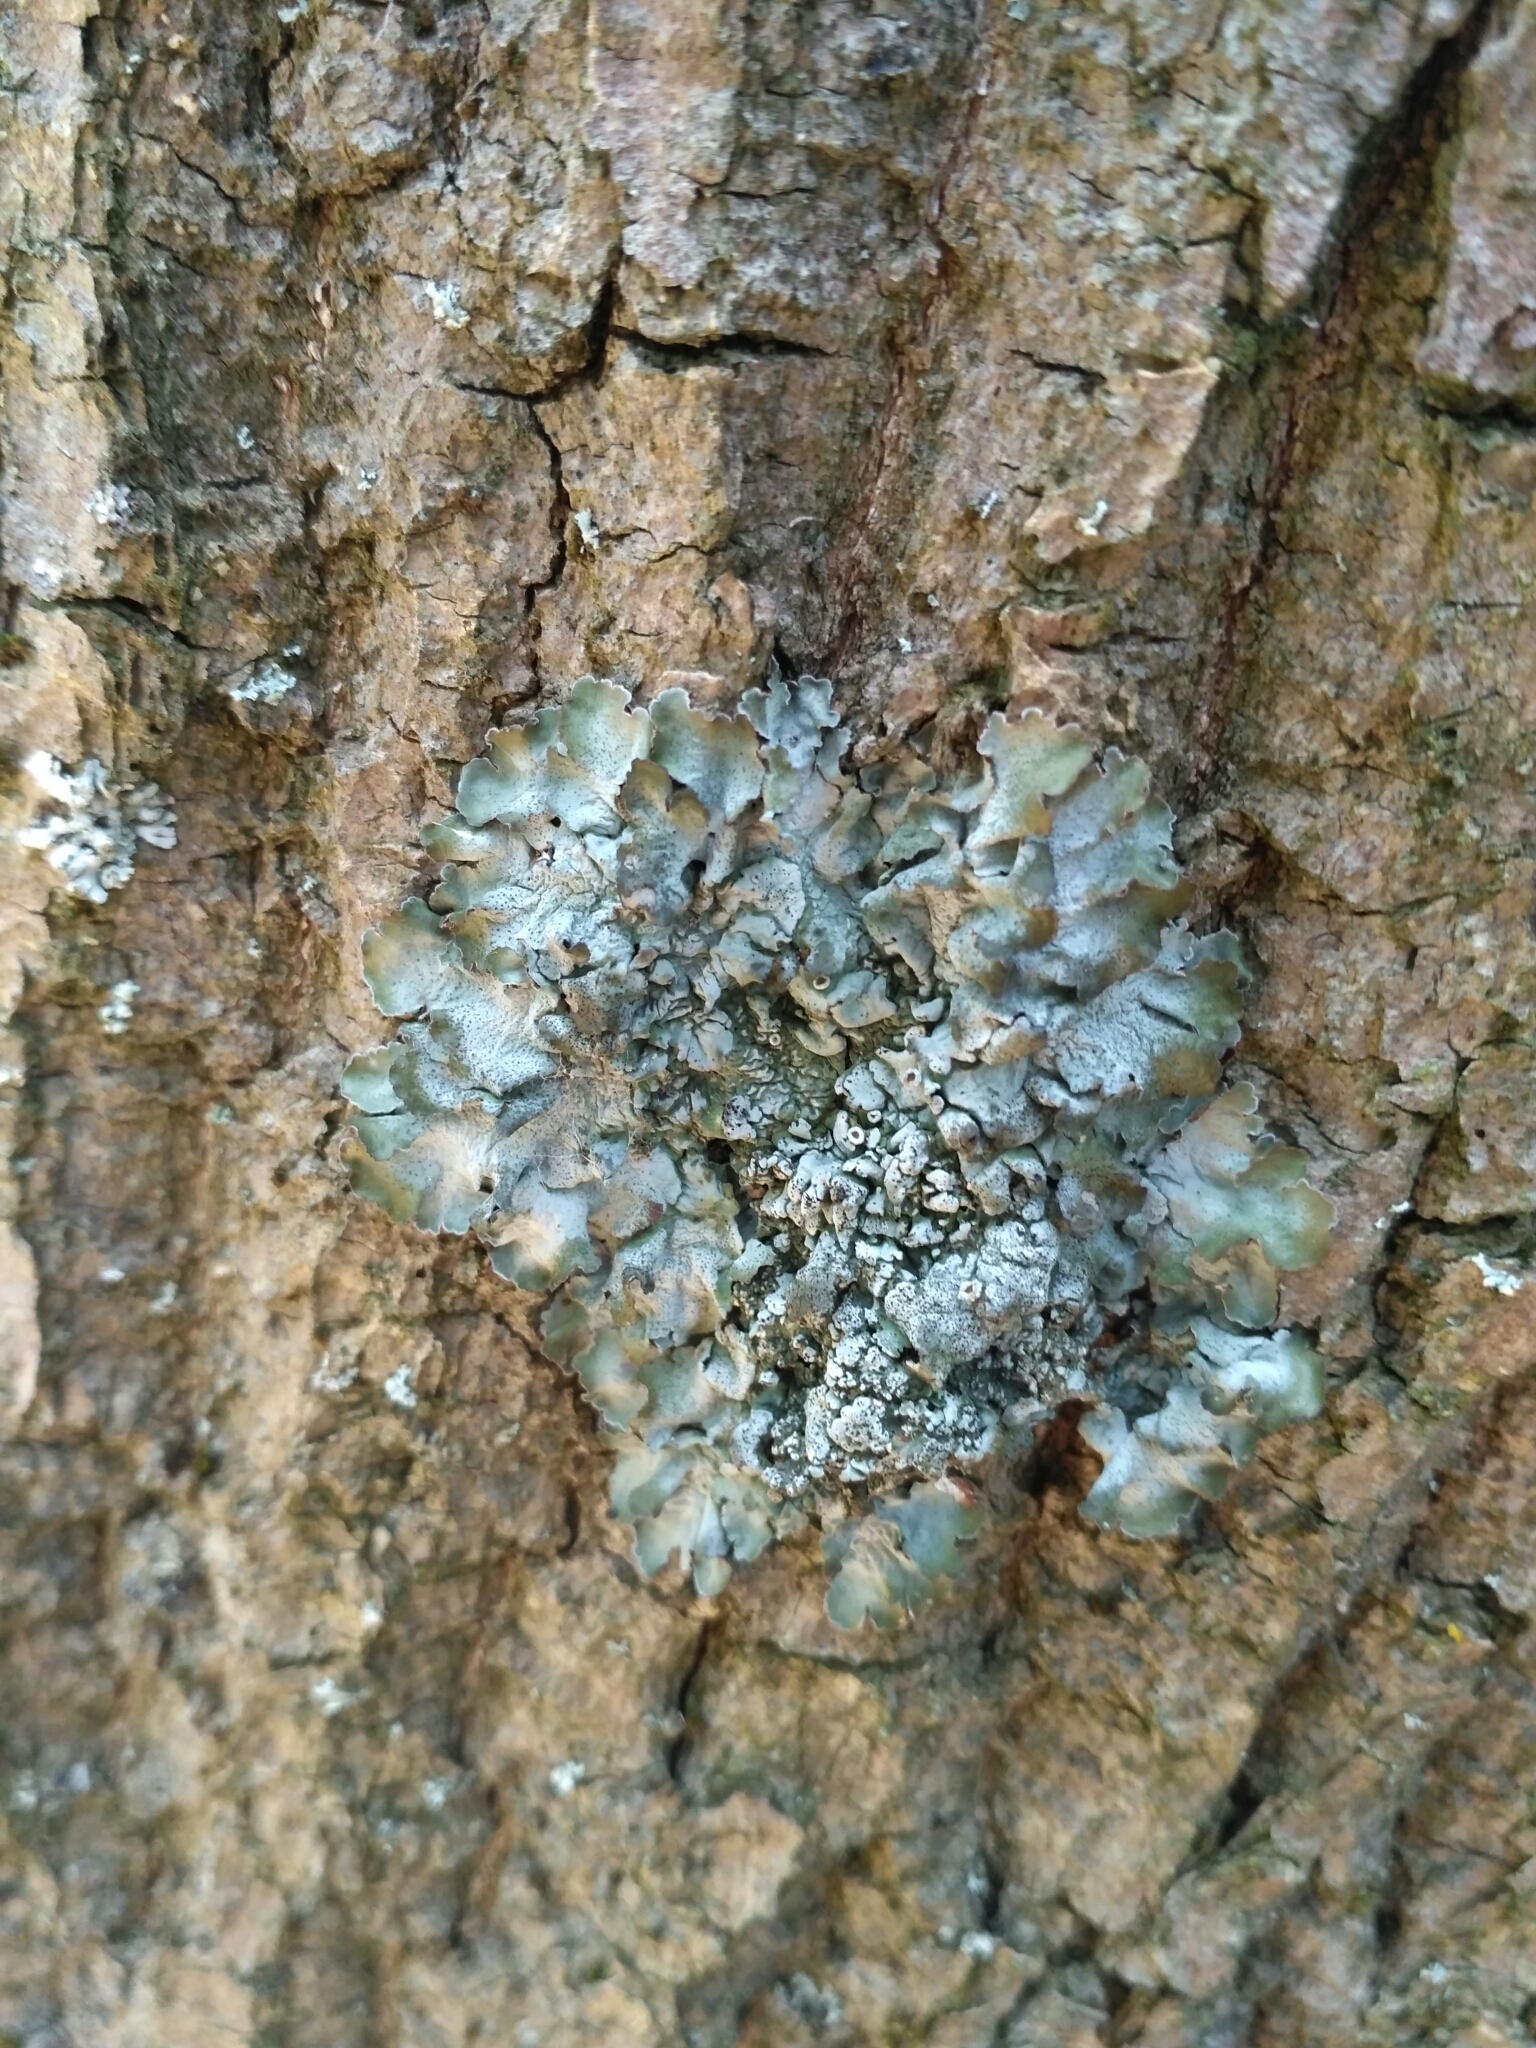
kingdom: Fungi
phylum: Ascomycota
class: Lecanoromycetes
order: Lecanorales
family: Parmeliaceae
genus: Pleurosticta
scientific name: Pleurosticta acetabulum
